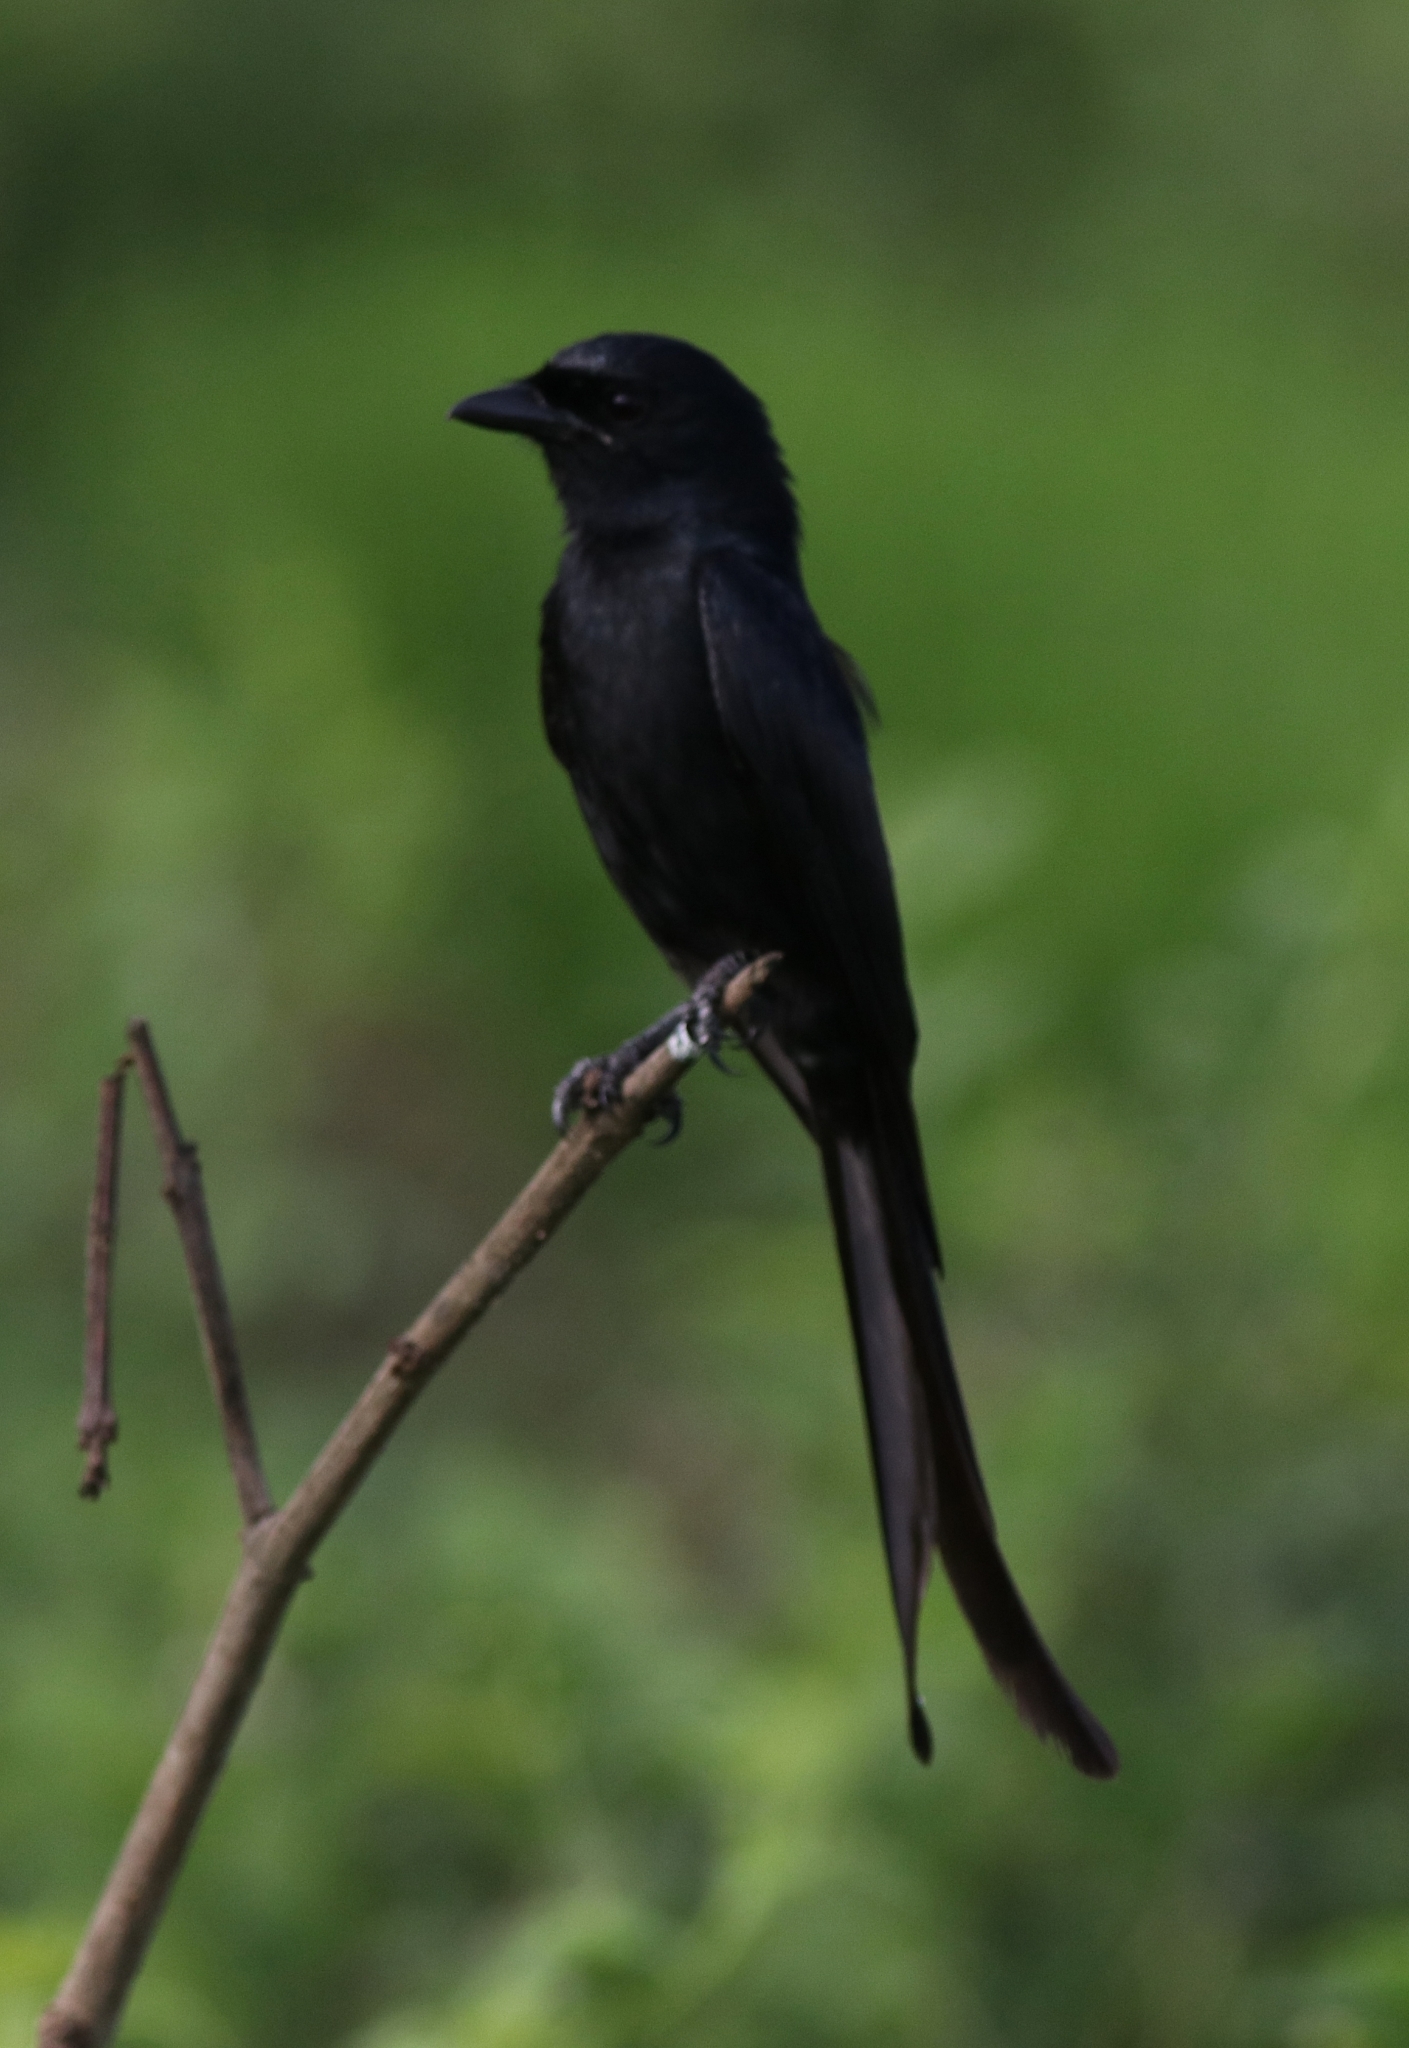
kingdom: Animalia
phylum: Chordata
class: Aves
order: Passeriformes
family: Dicruridae
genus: Dicrurus
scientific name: Dicrurus macrocercus
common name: Black drongo
